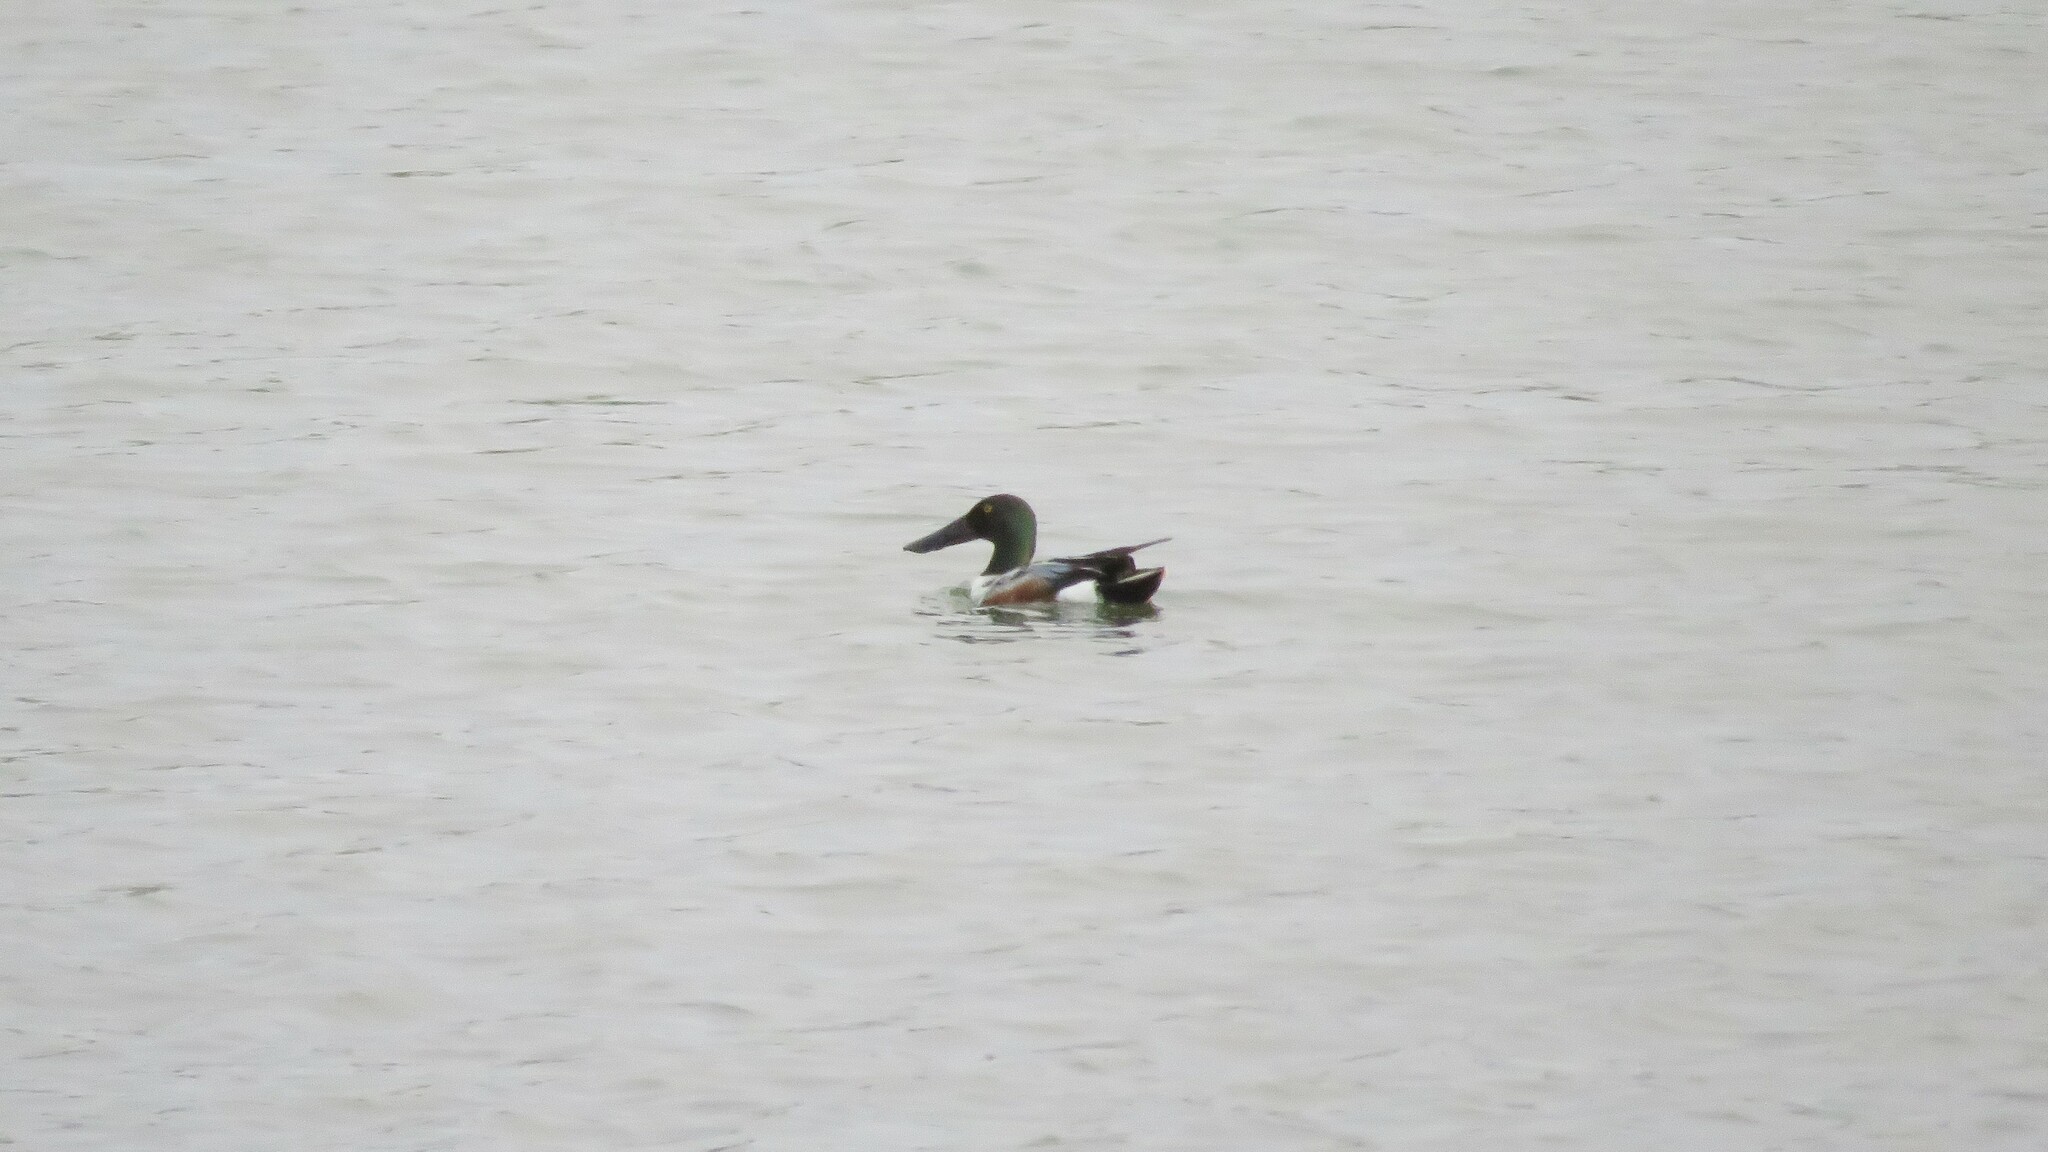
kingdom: Animalia
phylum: Chordata
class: Aves
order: Anseriformes
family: Anatidae
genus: Spatula
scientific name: Spatula clypeata
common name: Northern shoveler
